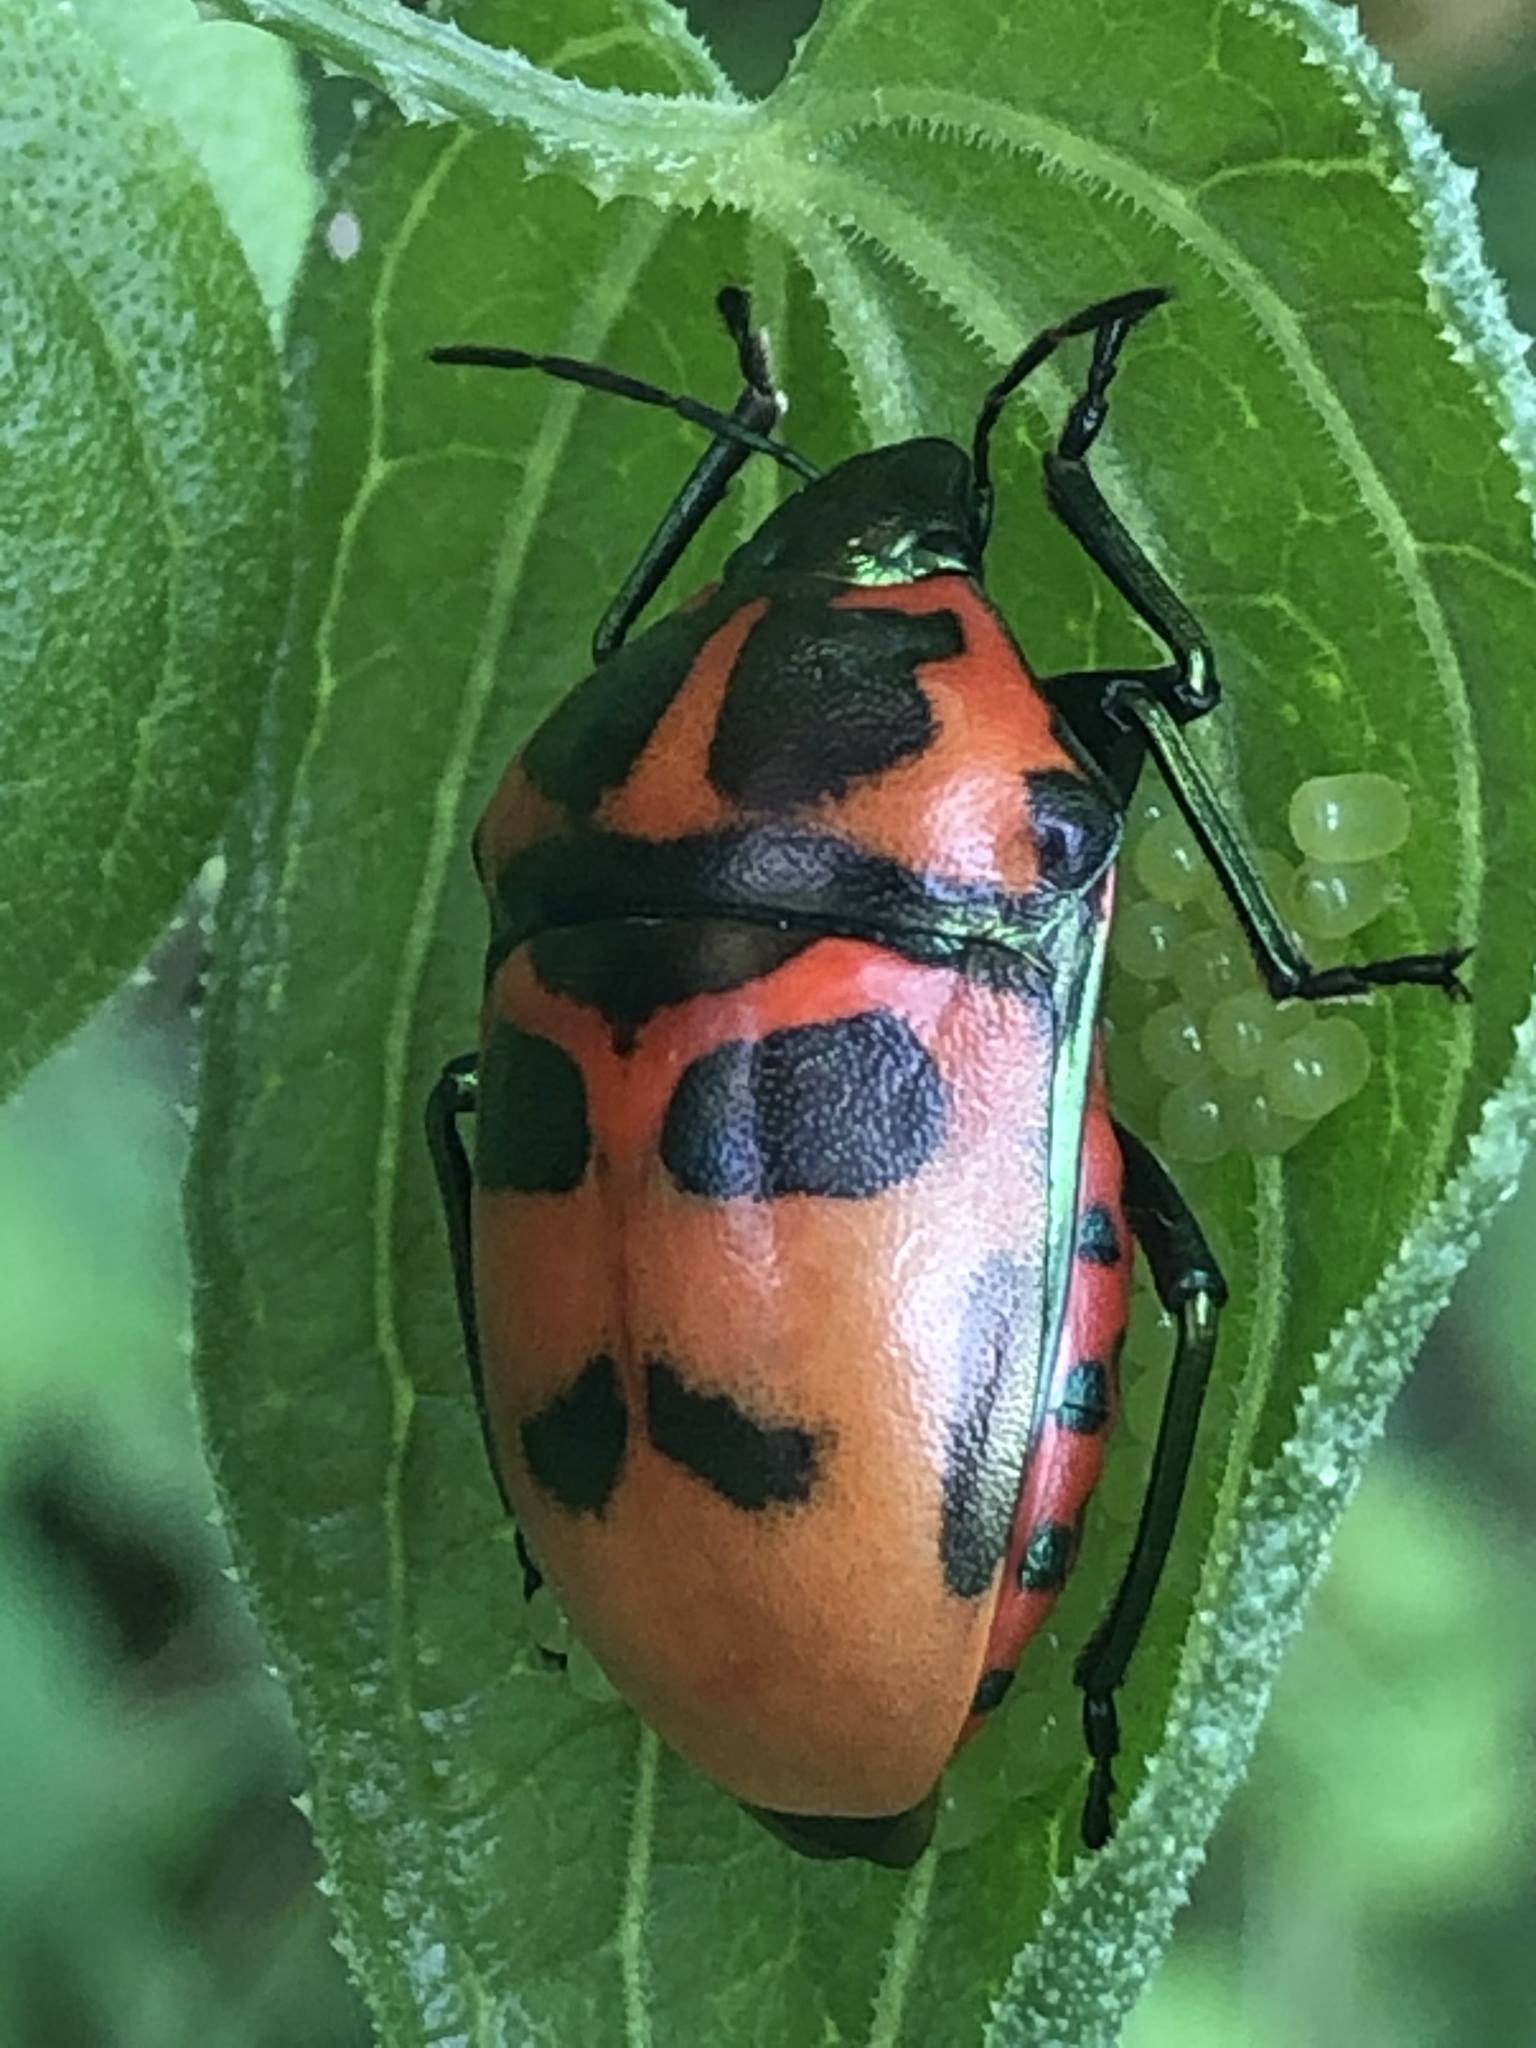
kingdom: Animalia
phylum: Arthropoda
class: Insecta
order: Hemiptera
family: Pentatomidae
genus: Cryptacrus
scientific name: Cryptacrus comes
